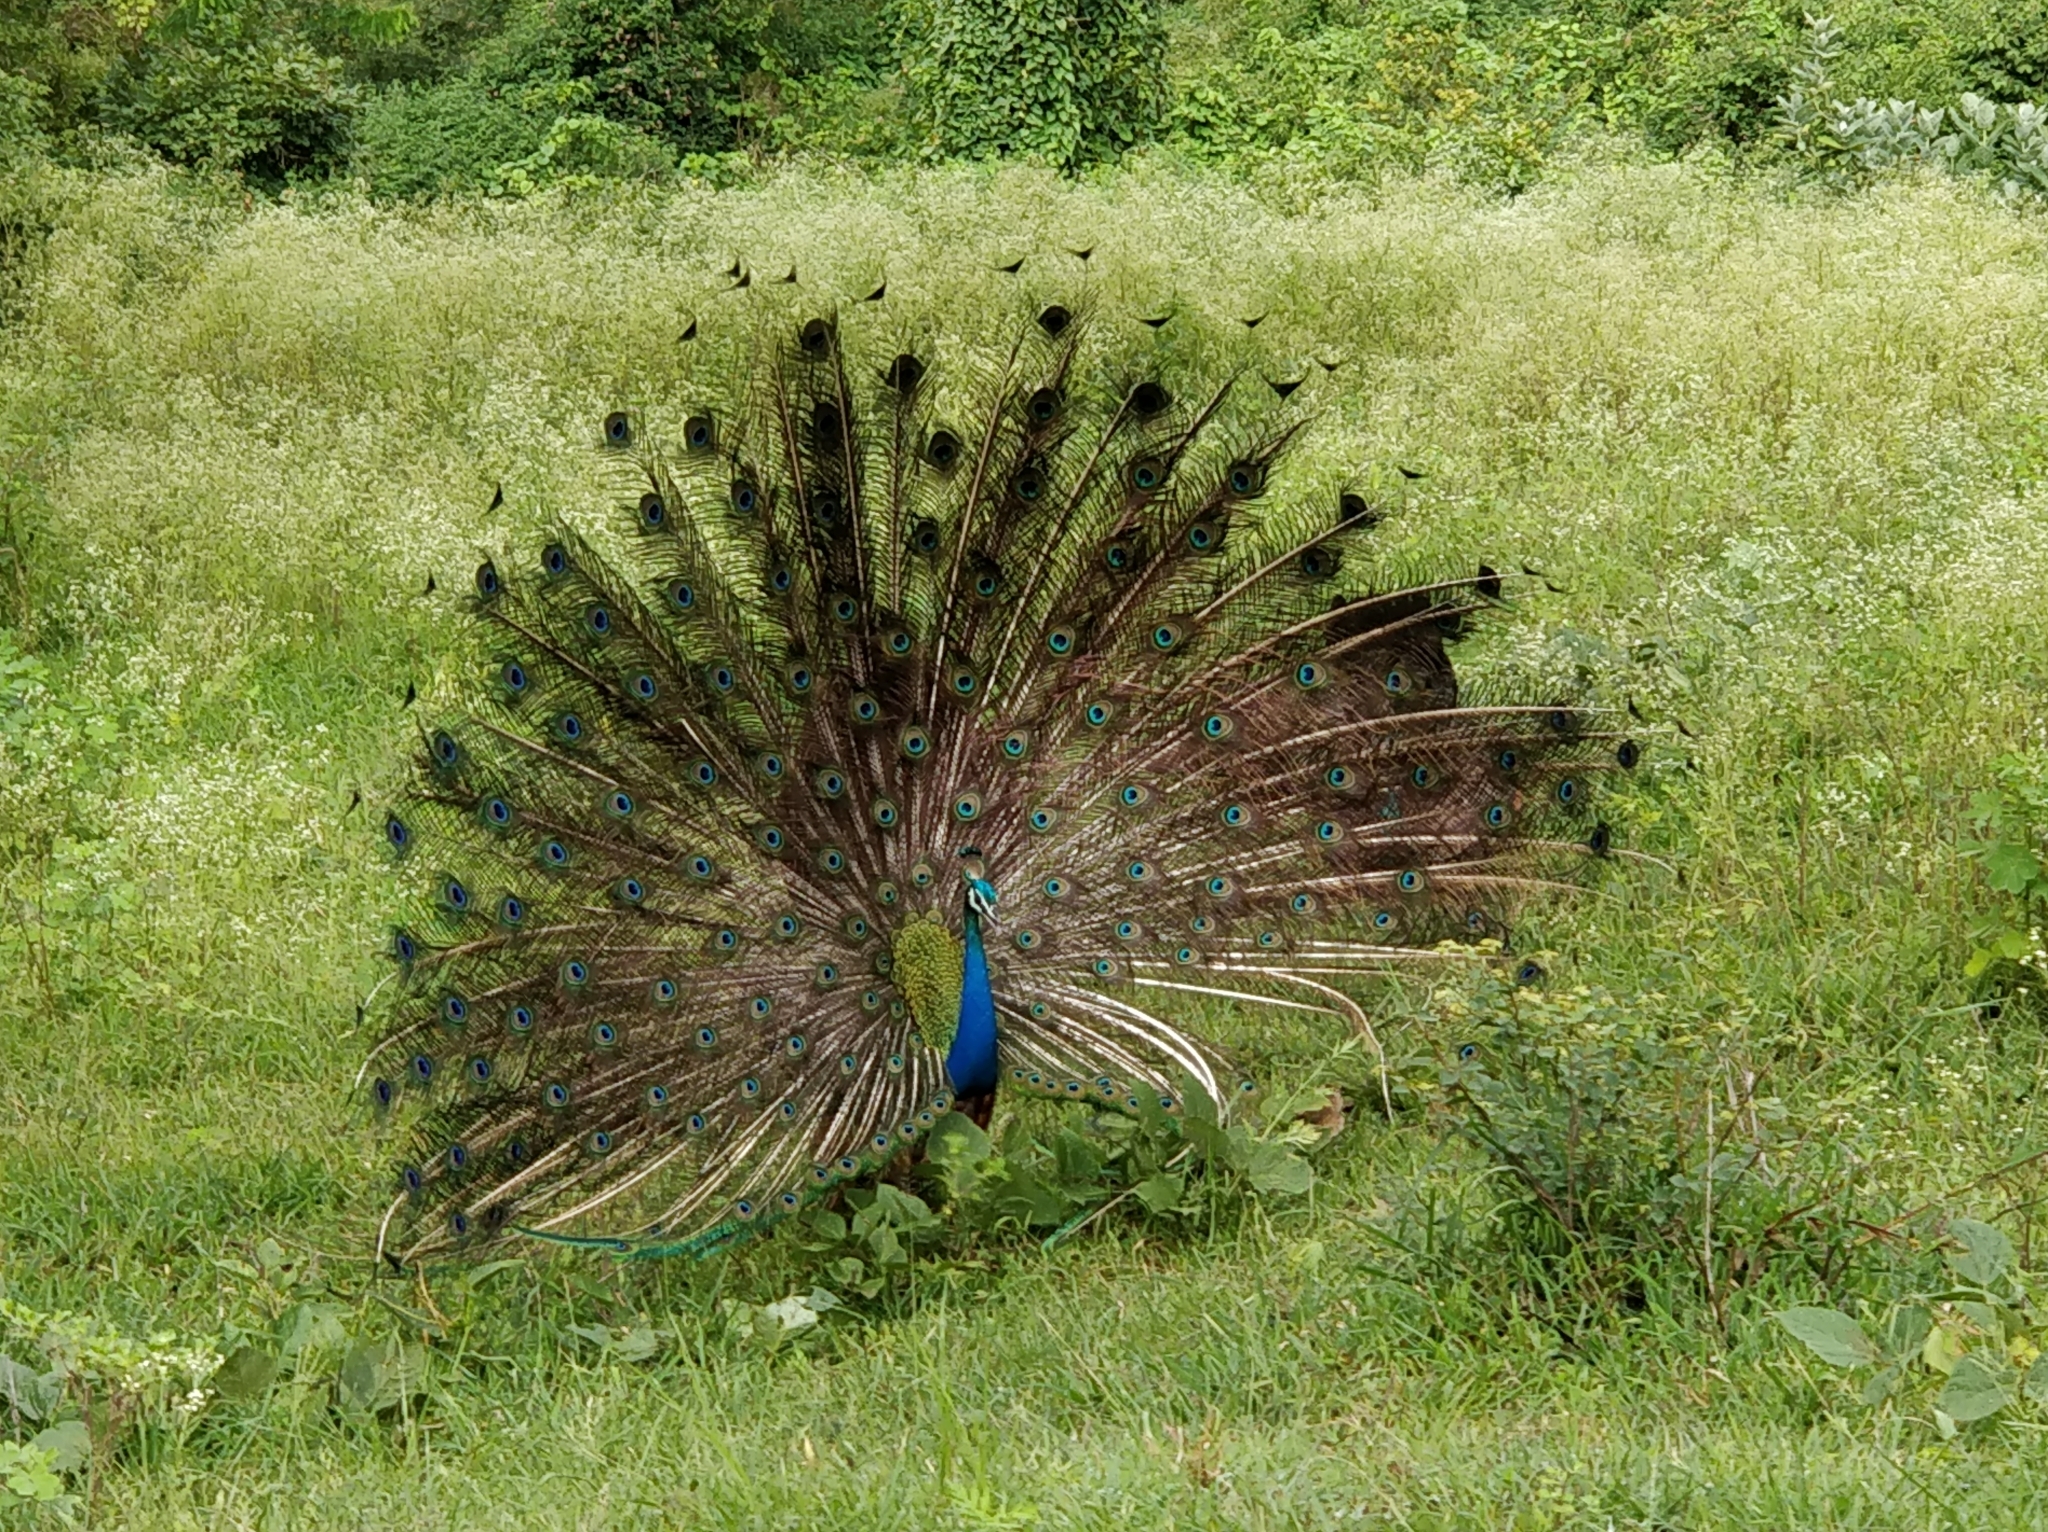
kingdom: Animalia
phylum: Chordata
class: Aves
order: Galliformes
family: Phasianidae
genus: Pavo
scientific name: Pavo cristatus
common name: Indian peafowl
